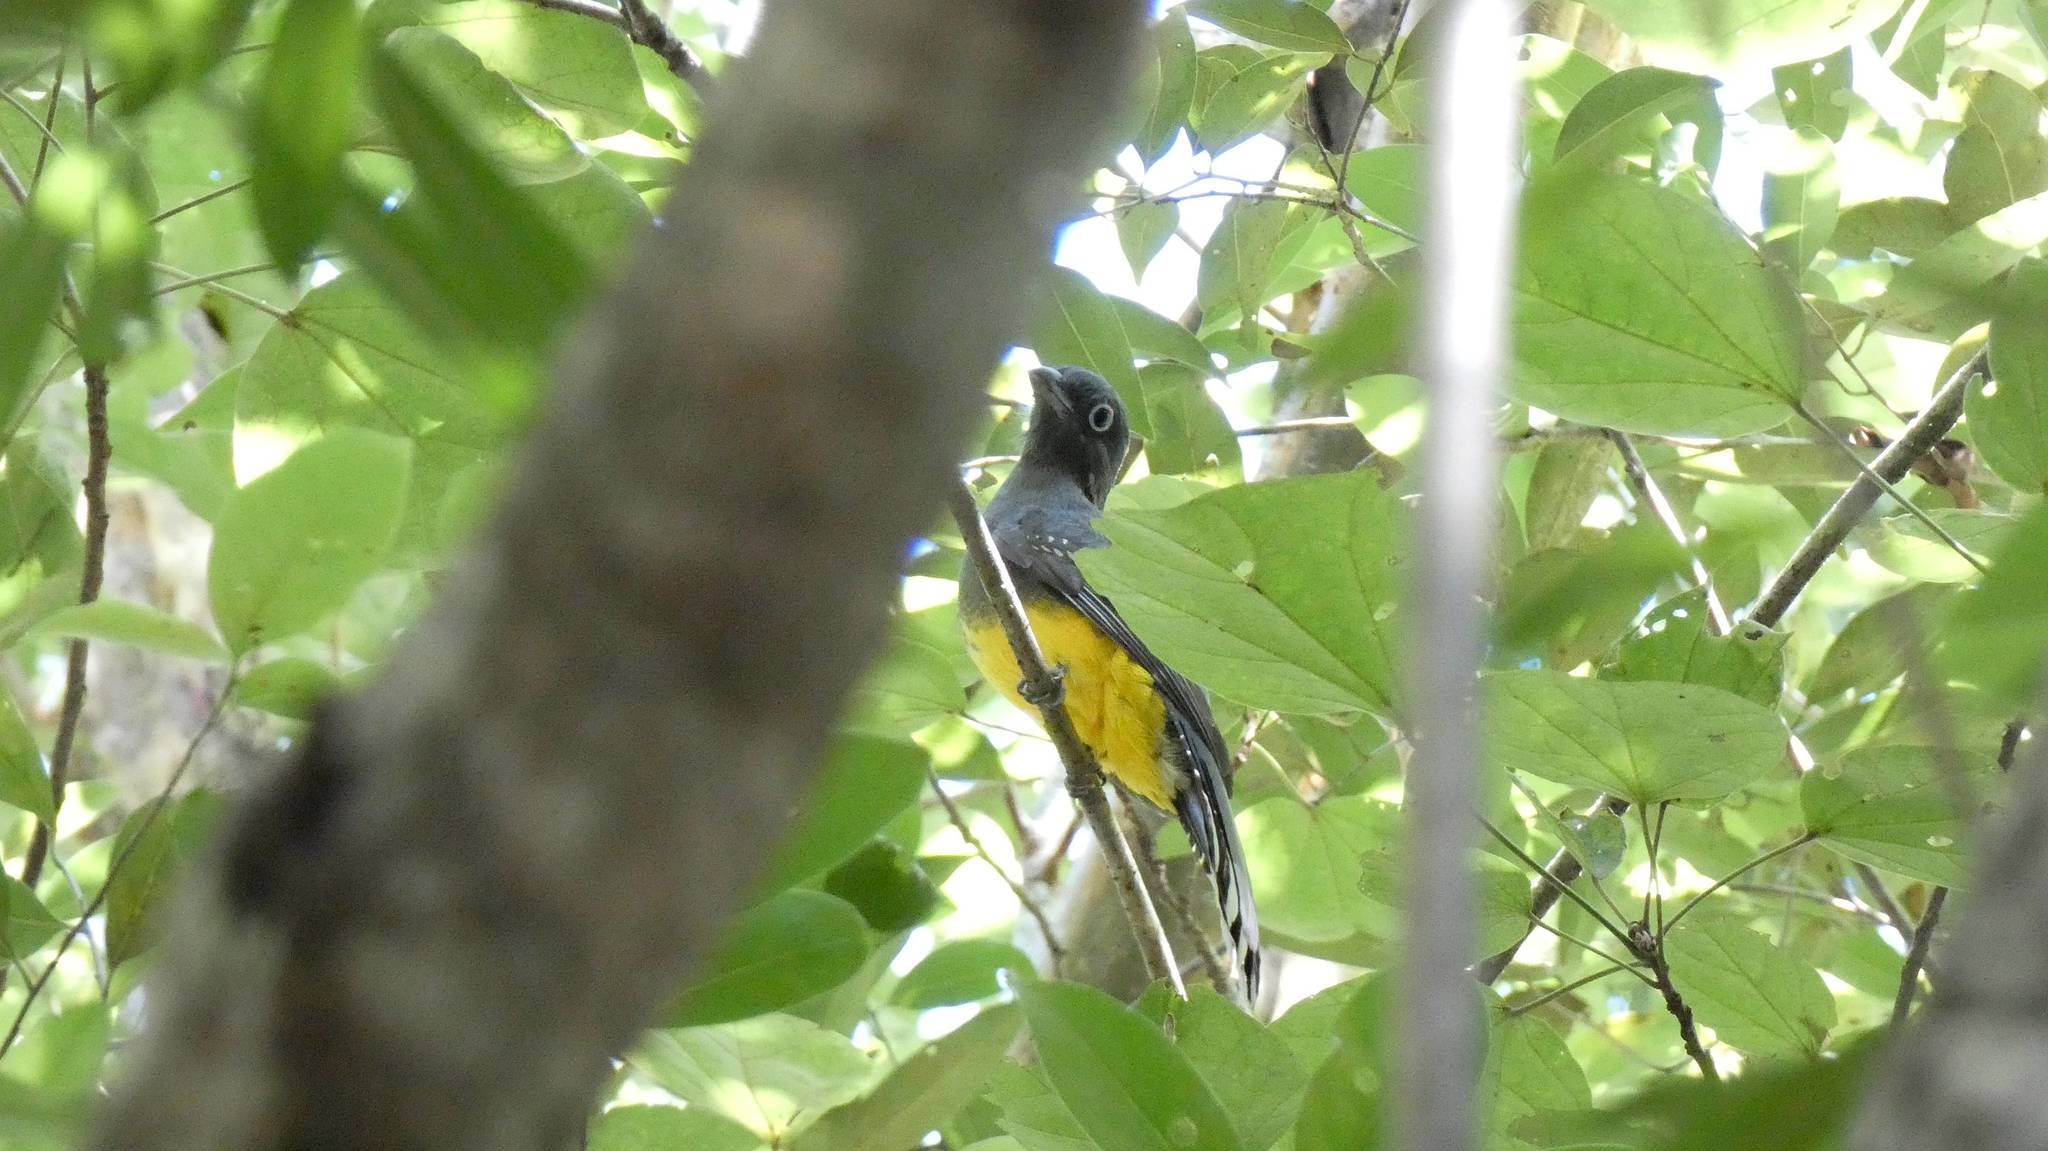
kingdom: Animalia
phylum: Chordata
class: Aves
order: Trogoniformes
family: Trogonidae
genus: Trogon
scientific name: Trogon melanocephalus
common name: Black-headed trogon
